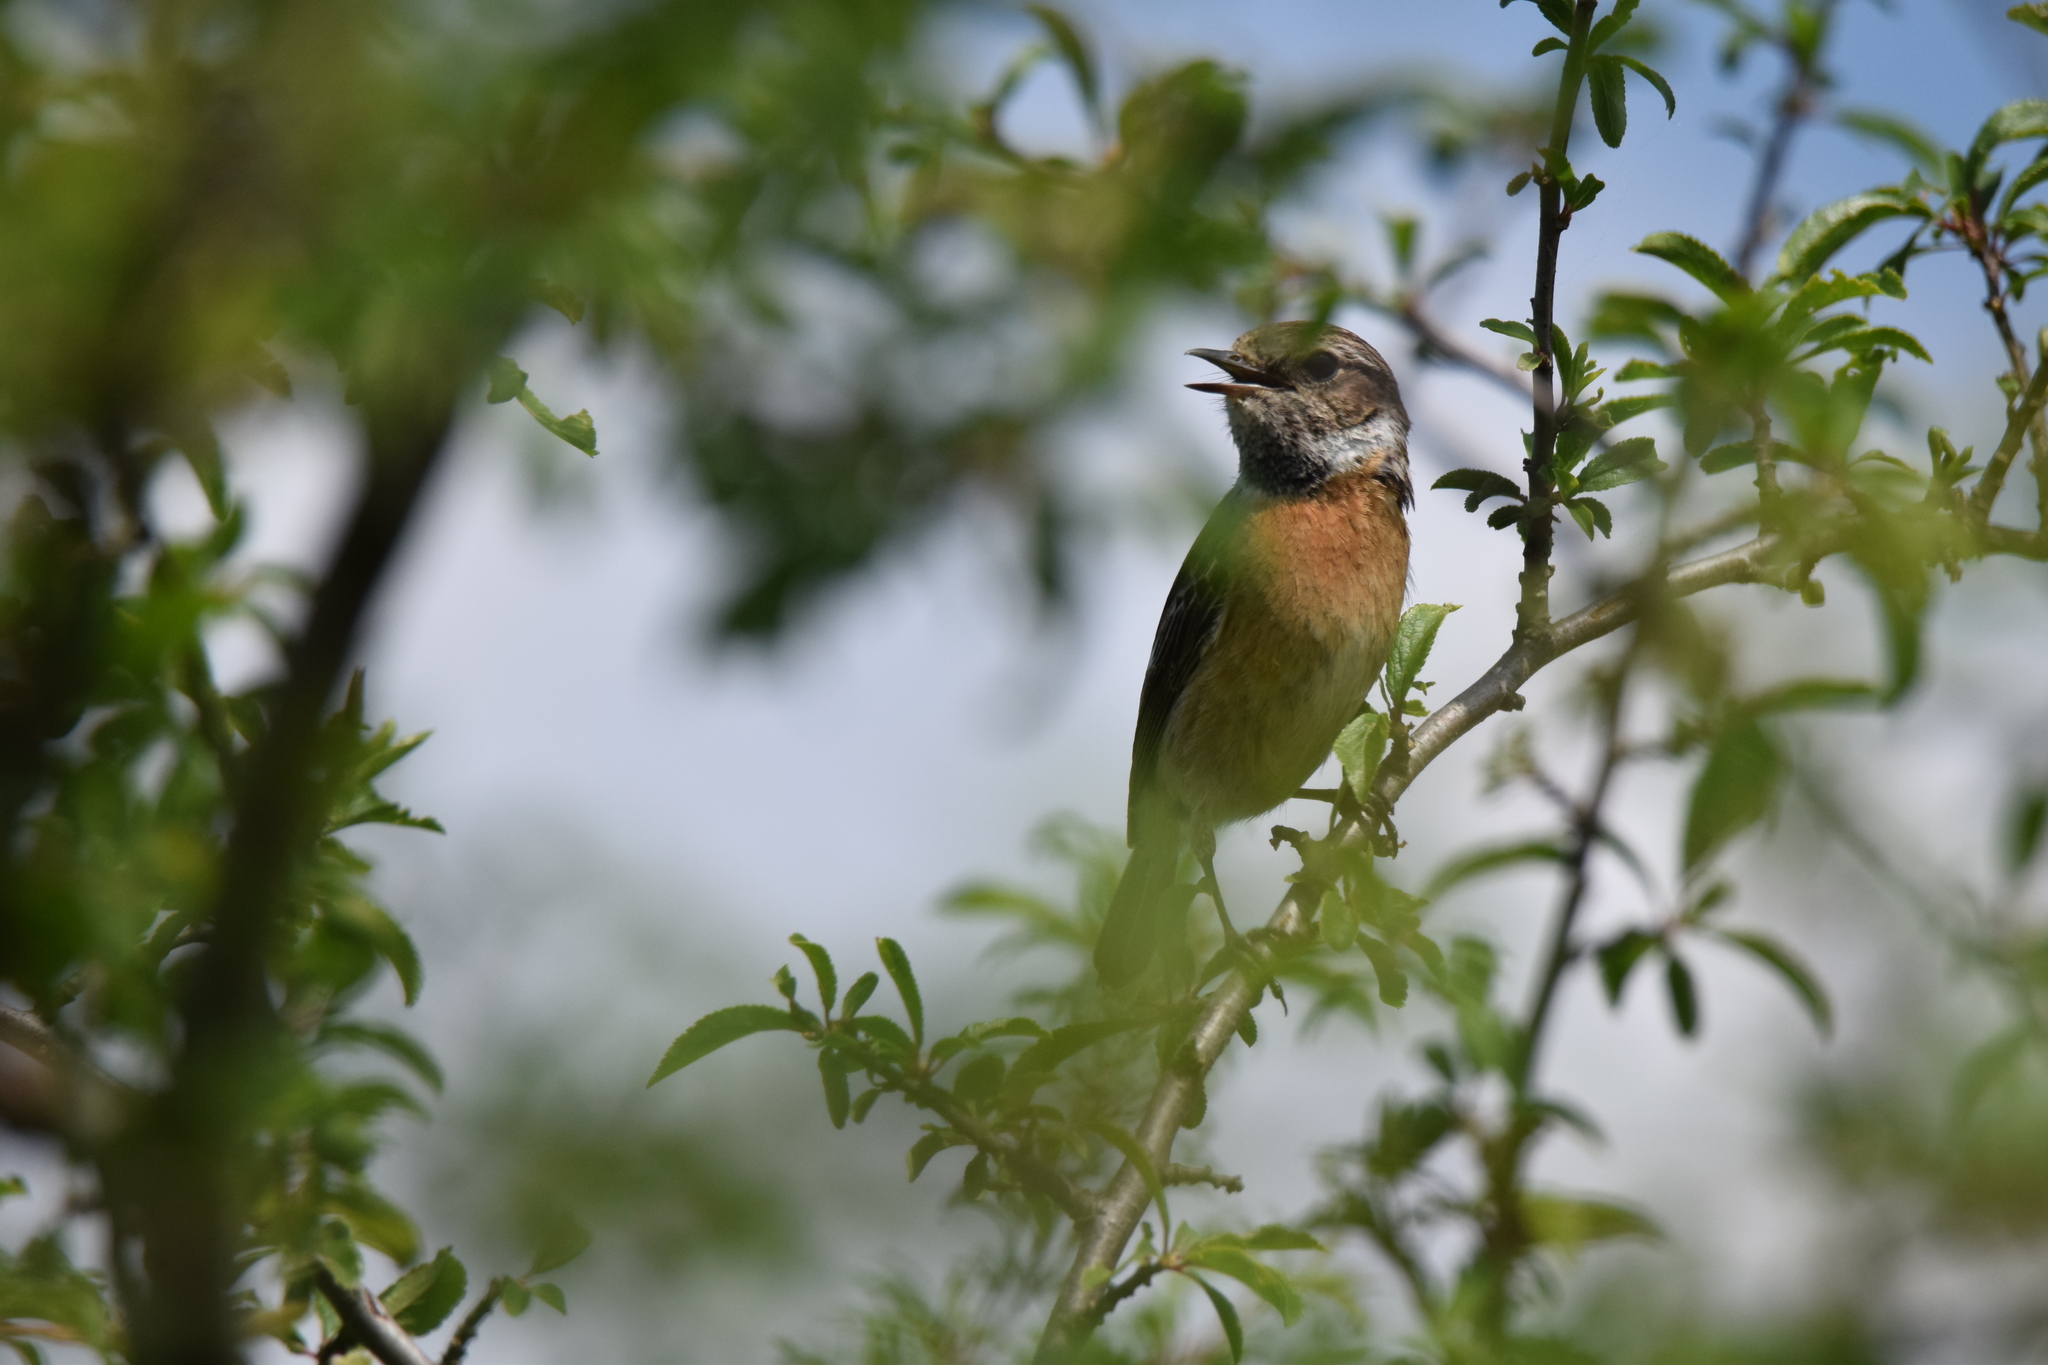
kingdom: Animalia
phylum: Chordata
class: Aves
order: Passeriformes
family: Muscicapidae
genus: Saxicola
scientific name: Saxicola rubicola
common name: European stonechat
